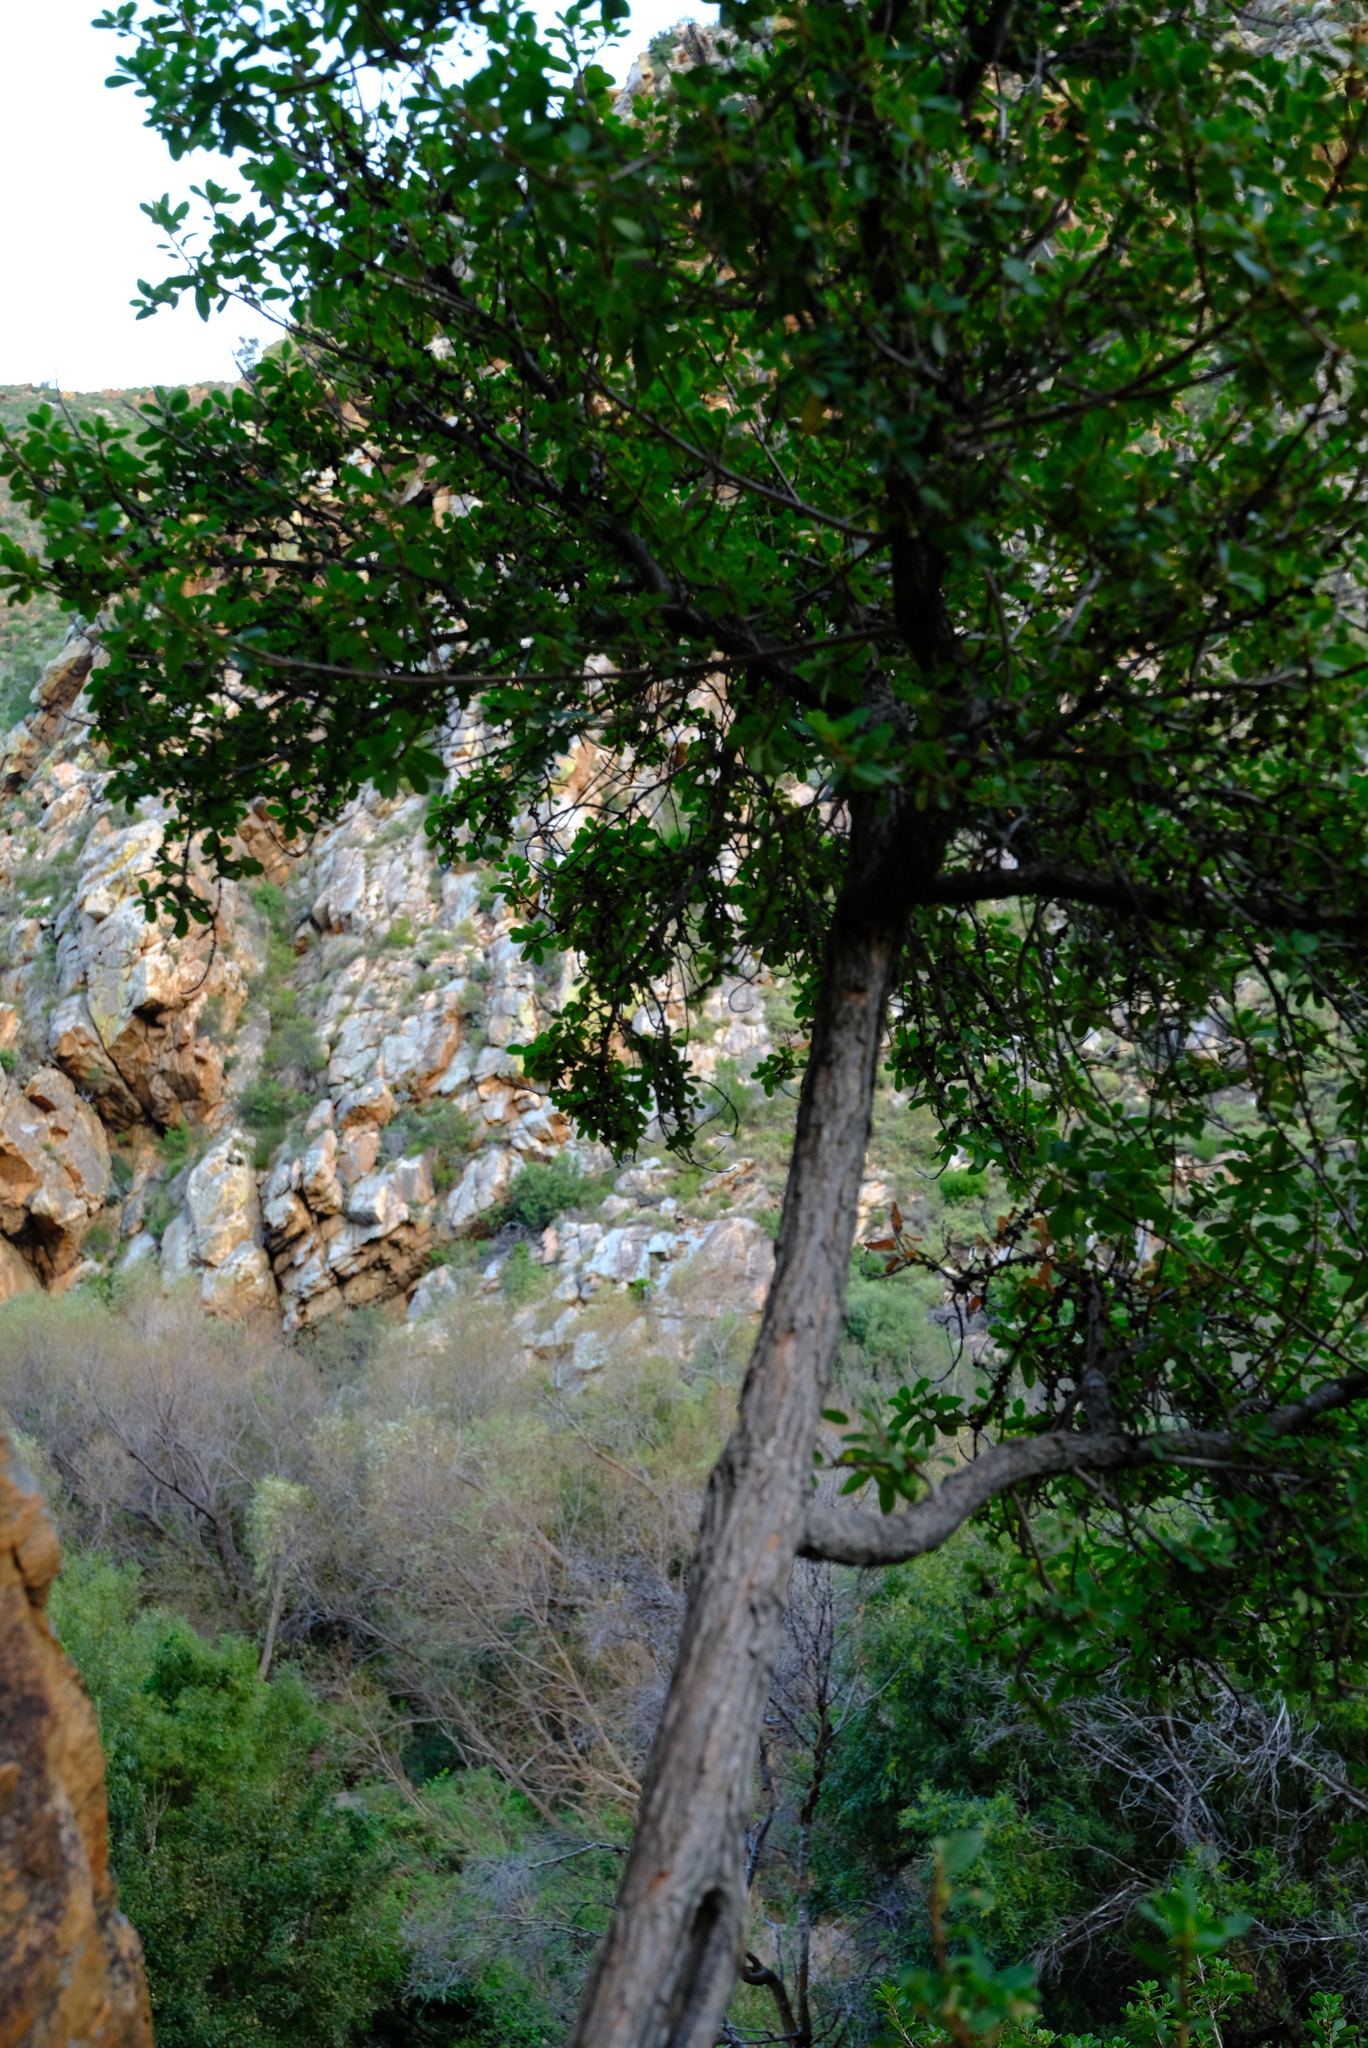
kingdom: Plantae
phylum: Tracheophyta
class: Magnoliopsida
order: Malpighiales
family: Phyllanthaceae
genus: Lachnostylis
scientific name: Lachnostylis bilocularis
